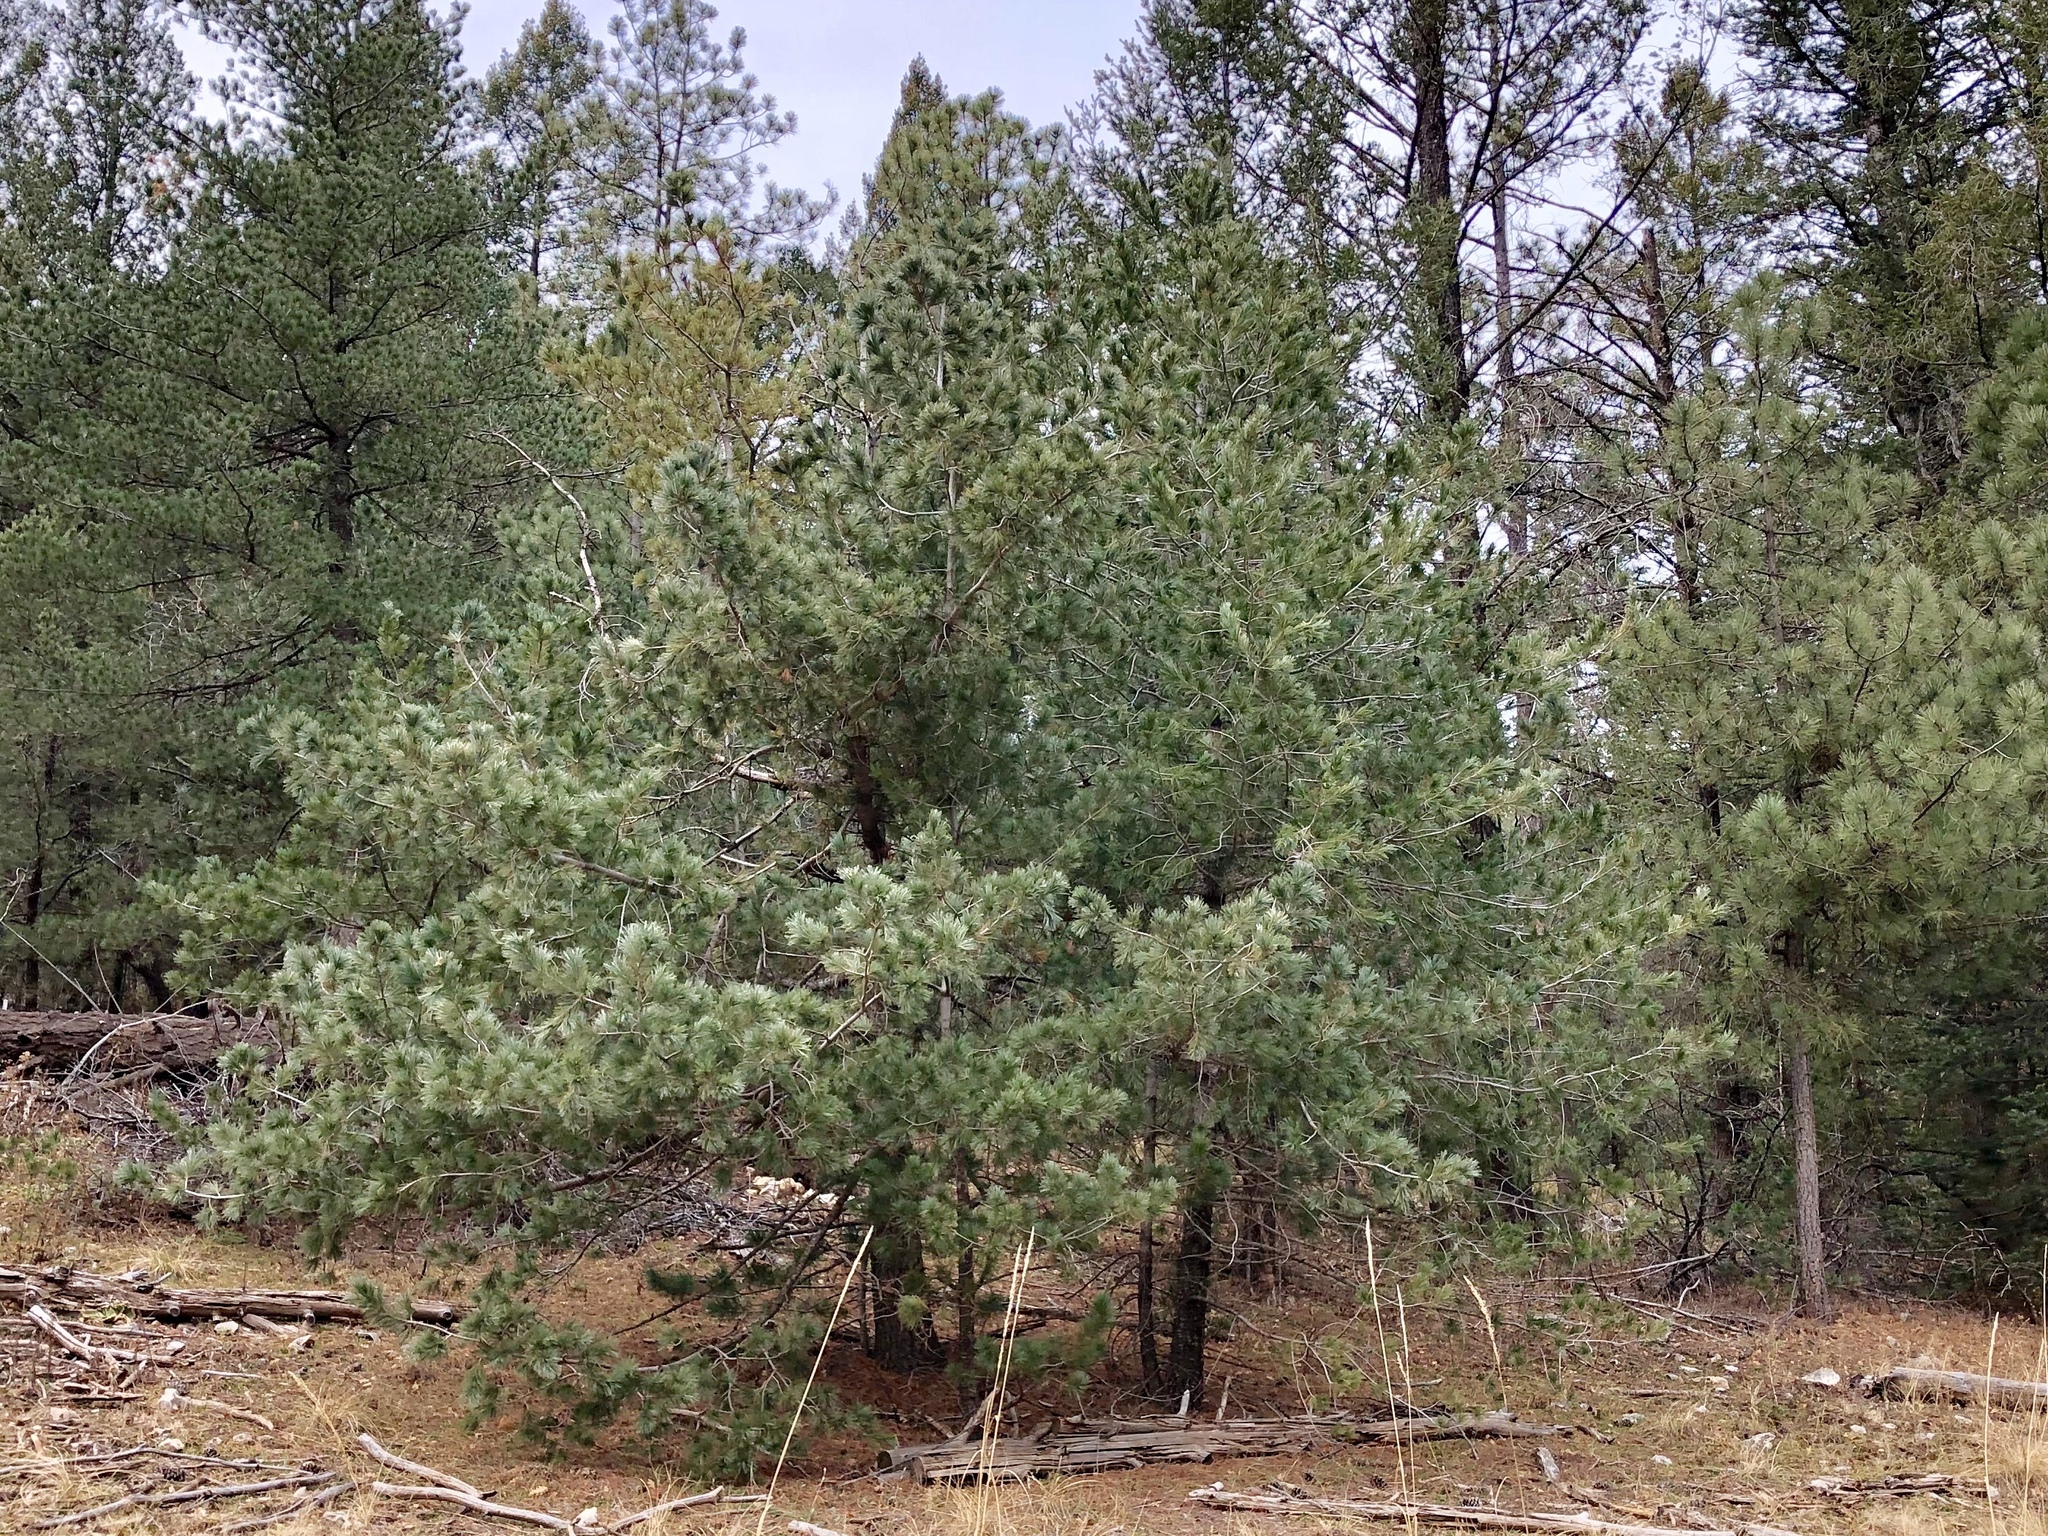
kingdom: Plantae
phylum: Tracheophyta
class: Pinopsida
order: Pinales
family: Pinaceae
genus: Pinus
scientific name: Pinus strobiformis
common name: Southwestern white pine
